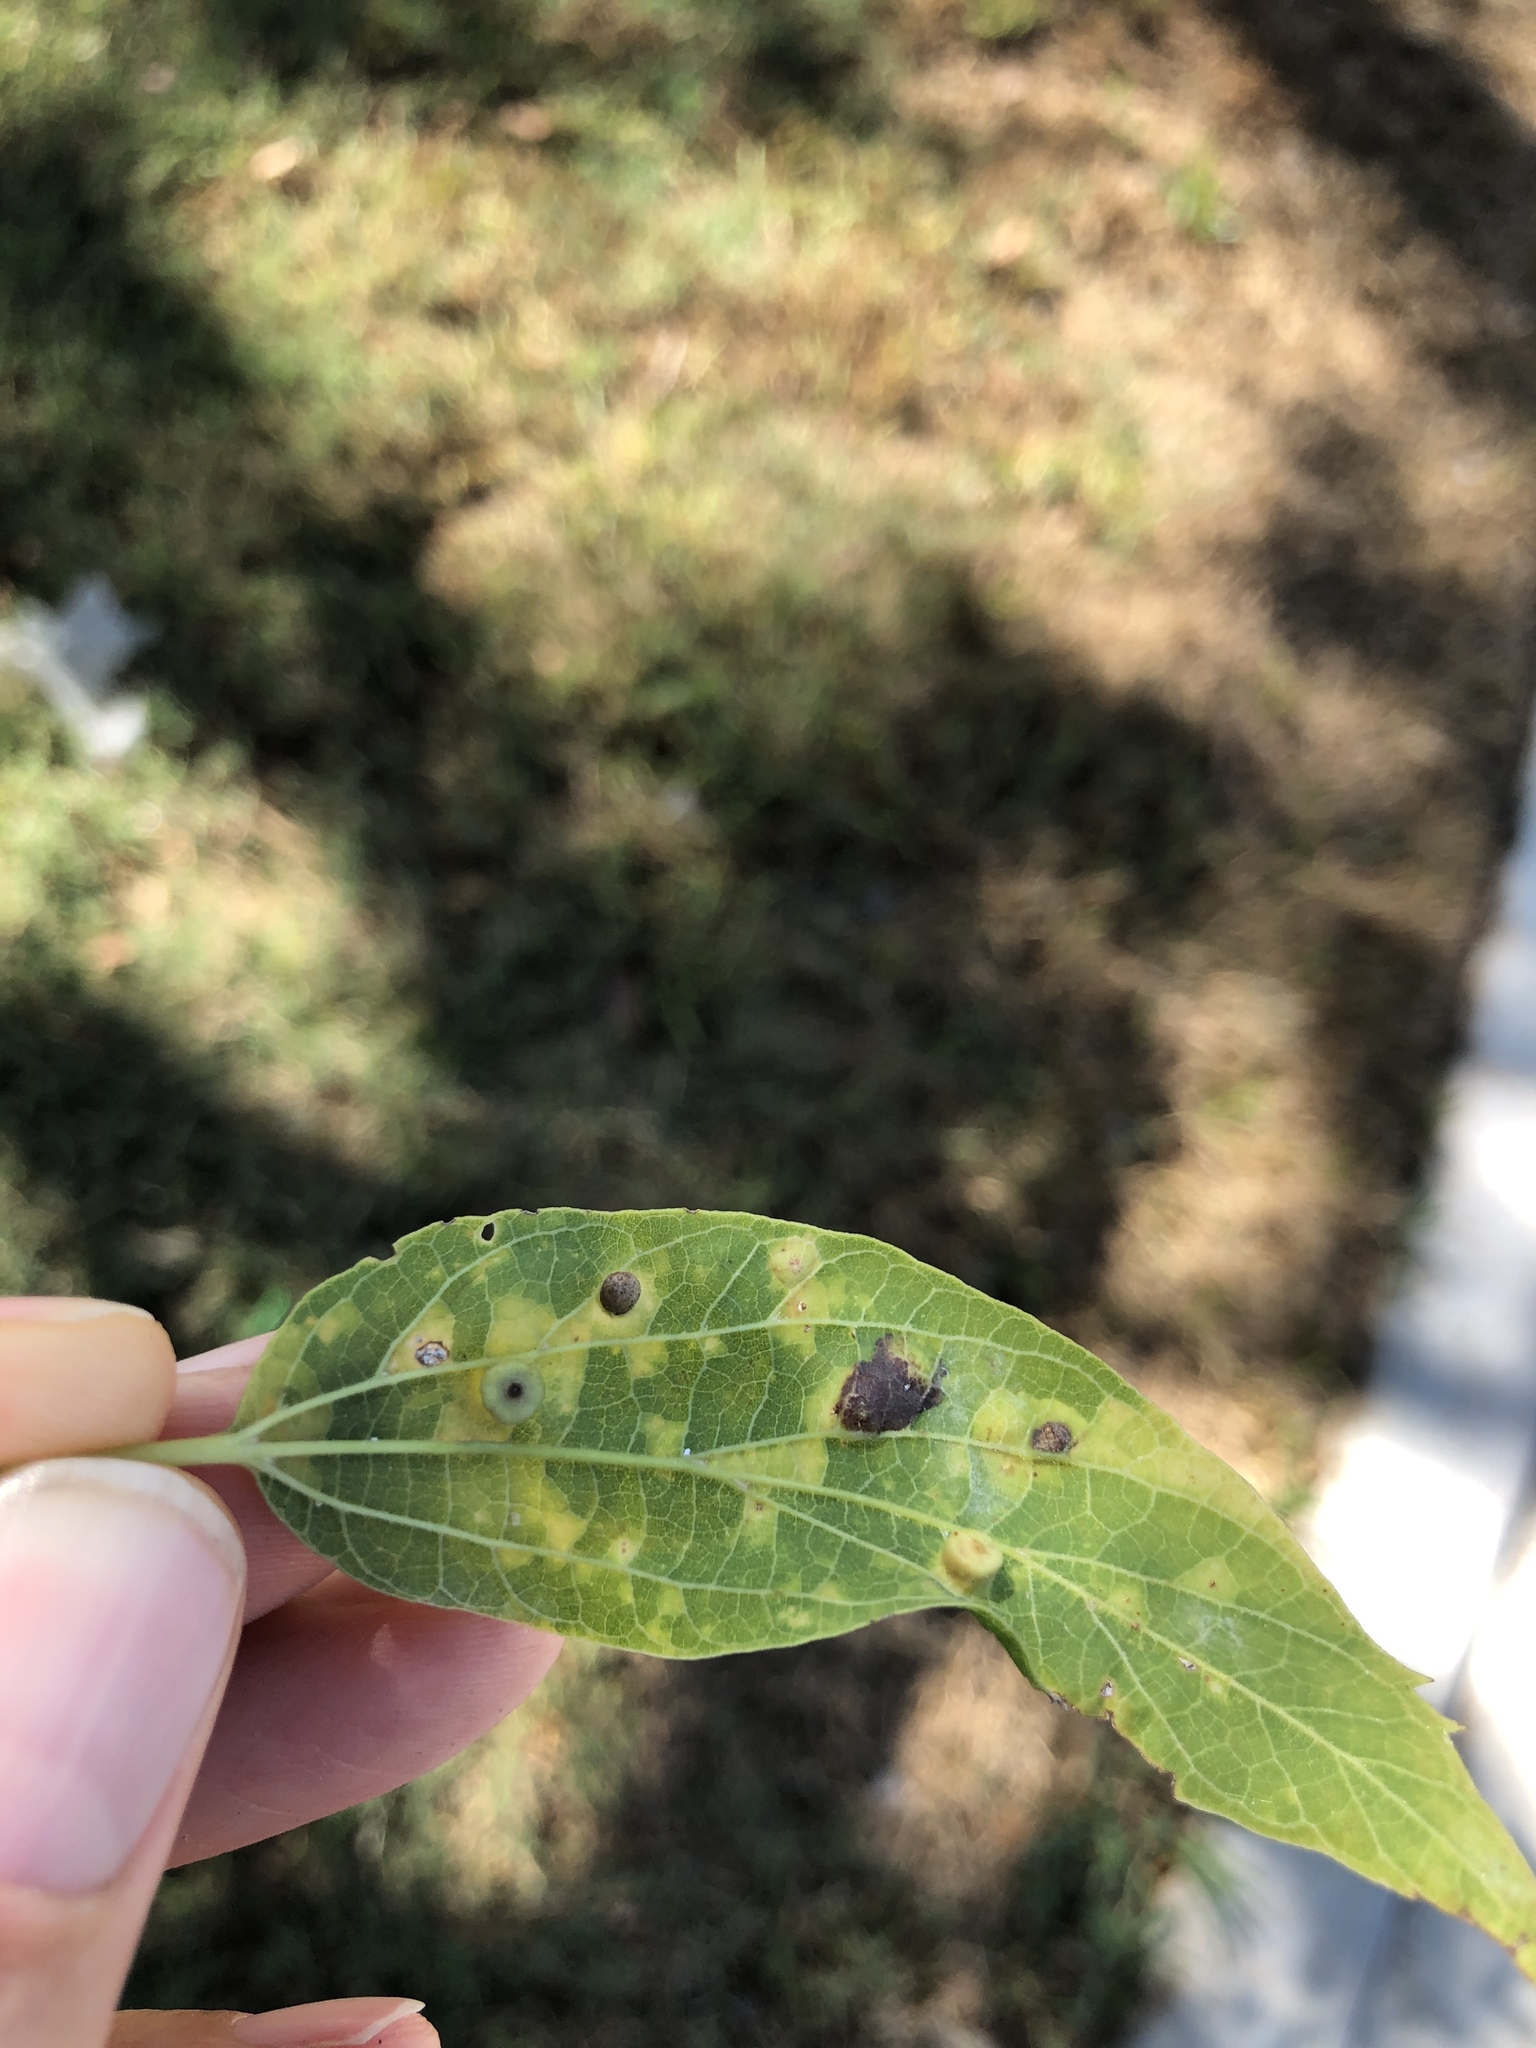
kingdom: Animalia
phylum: Arthropoda
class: Insecta
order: Hemiptera
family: Aphalaridae
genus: Pachypsylla
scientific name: Pachypsylla celtidismamma
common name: Hackberry nipplegall psyllid
